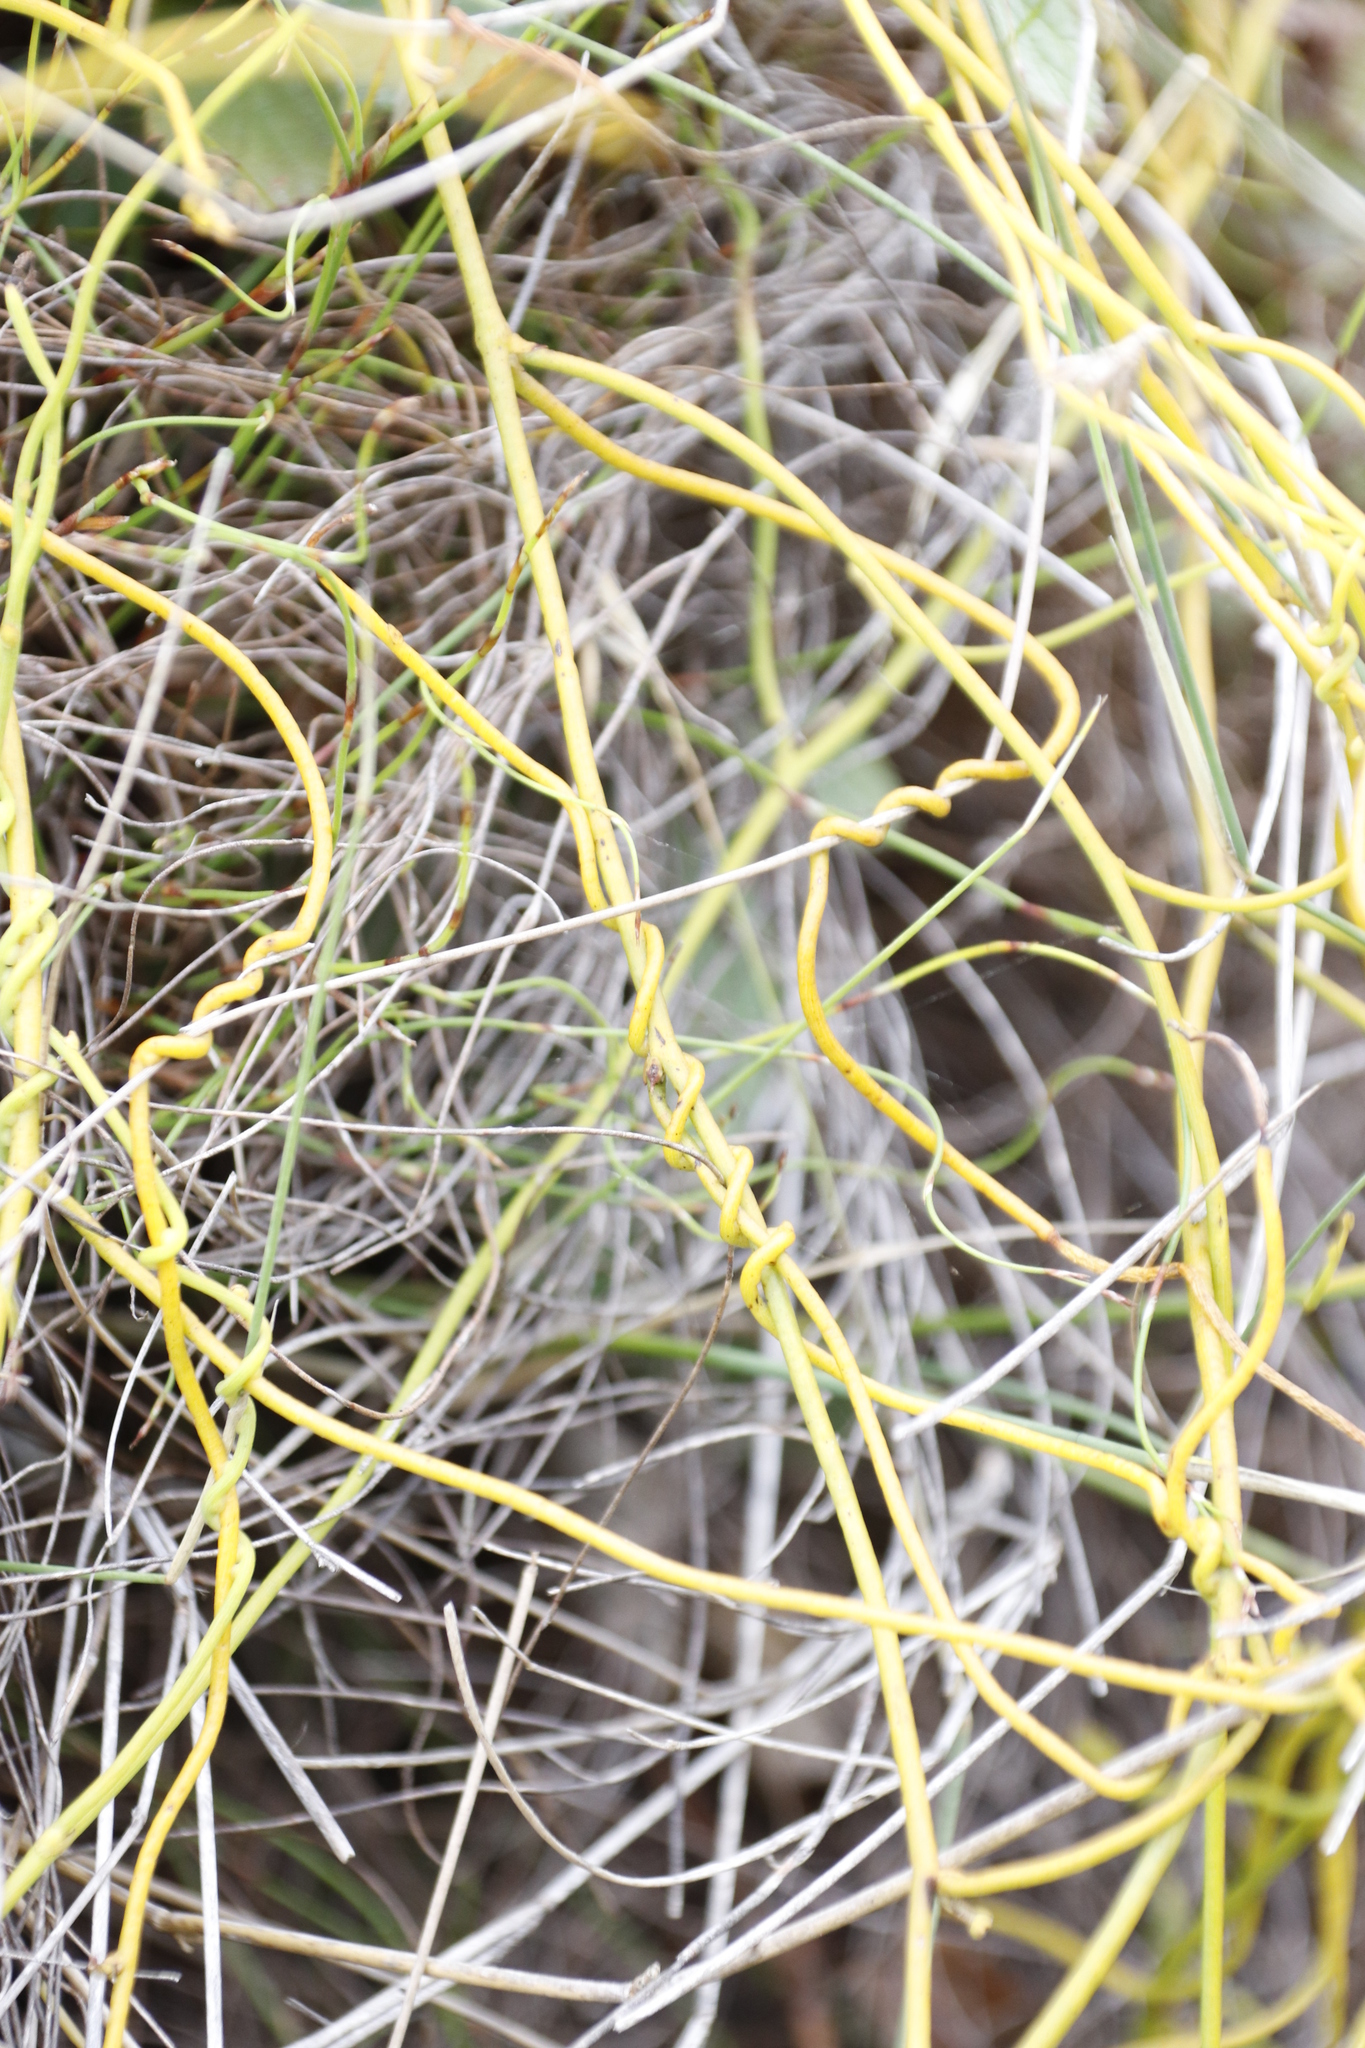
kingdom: Plantae
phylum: Tracheophyta
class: Magnoliopsida
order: Laurales
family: Lauraceae
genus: Cassytha
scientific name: Cassytha ciliolata
